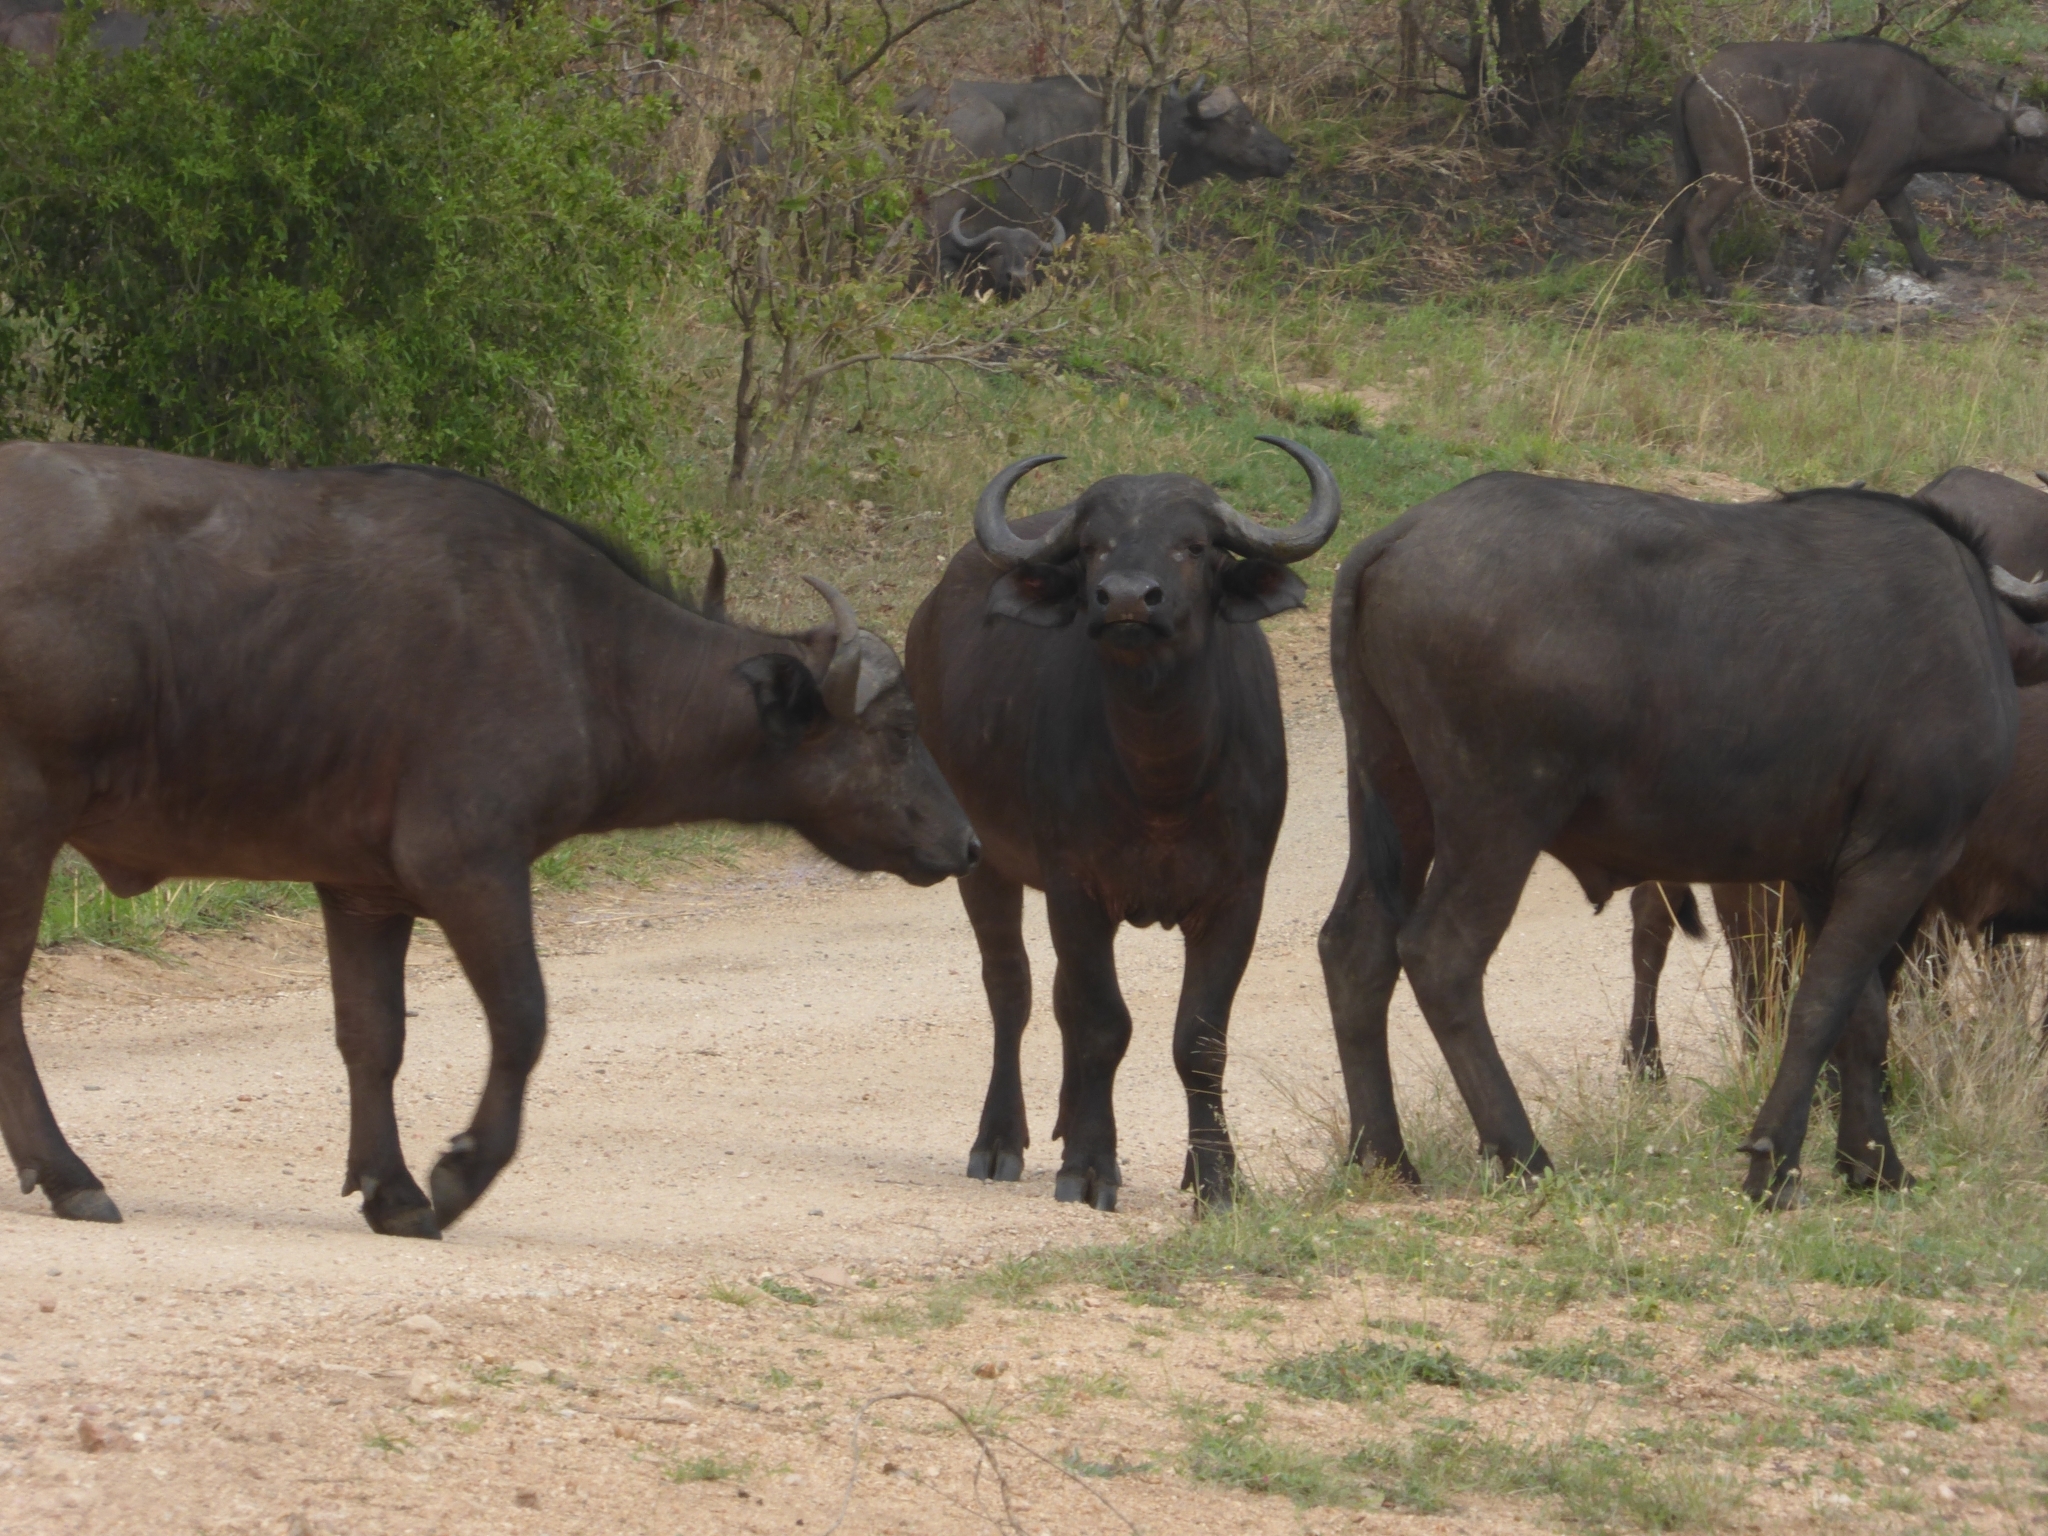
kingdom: Animalia
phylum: Chordata
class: Mammalia
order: Artiodactyla
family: Bovidae
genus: Syncerus
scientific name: Syncerus caffer
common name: African buffalo
